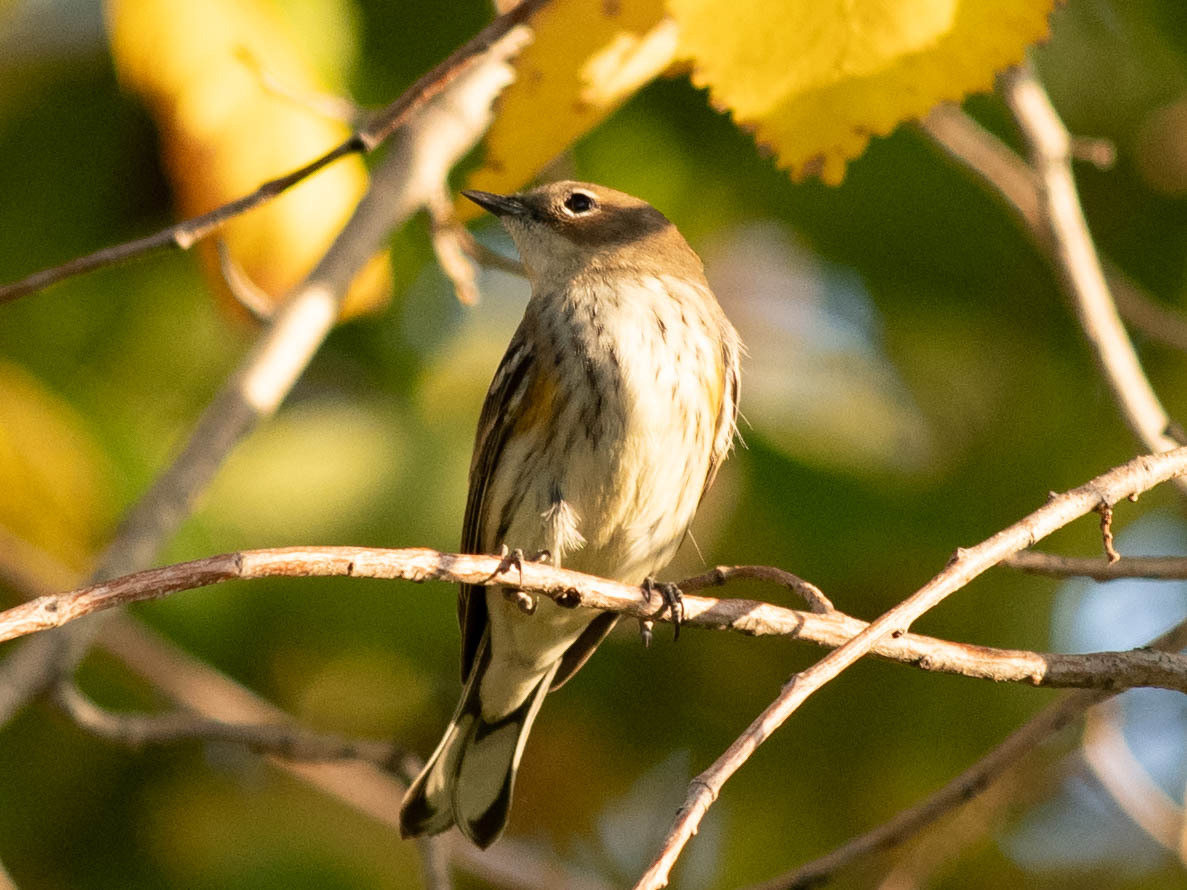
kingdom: Animalia
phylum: Chordata
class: Aves
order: Passeriformes
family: Parulidae
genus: Setophaga
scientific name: Setophaga coronata
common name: Myrtle warbler
